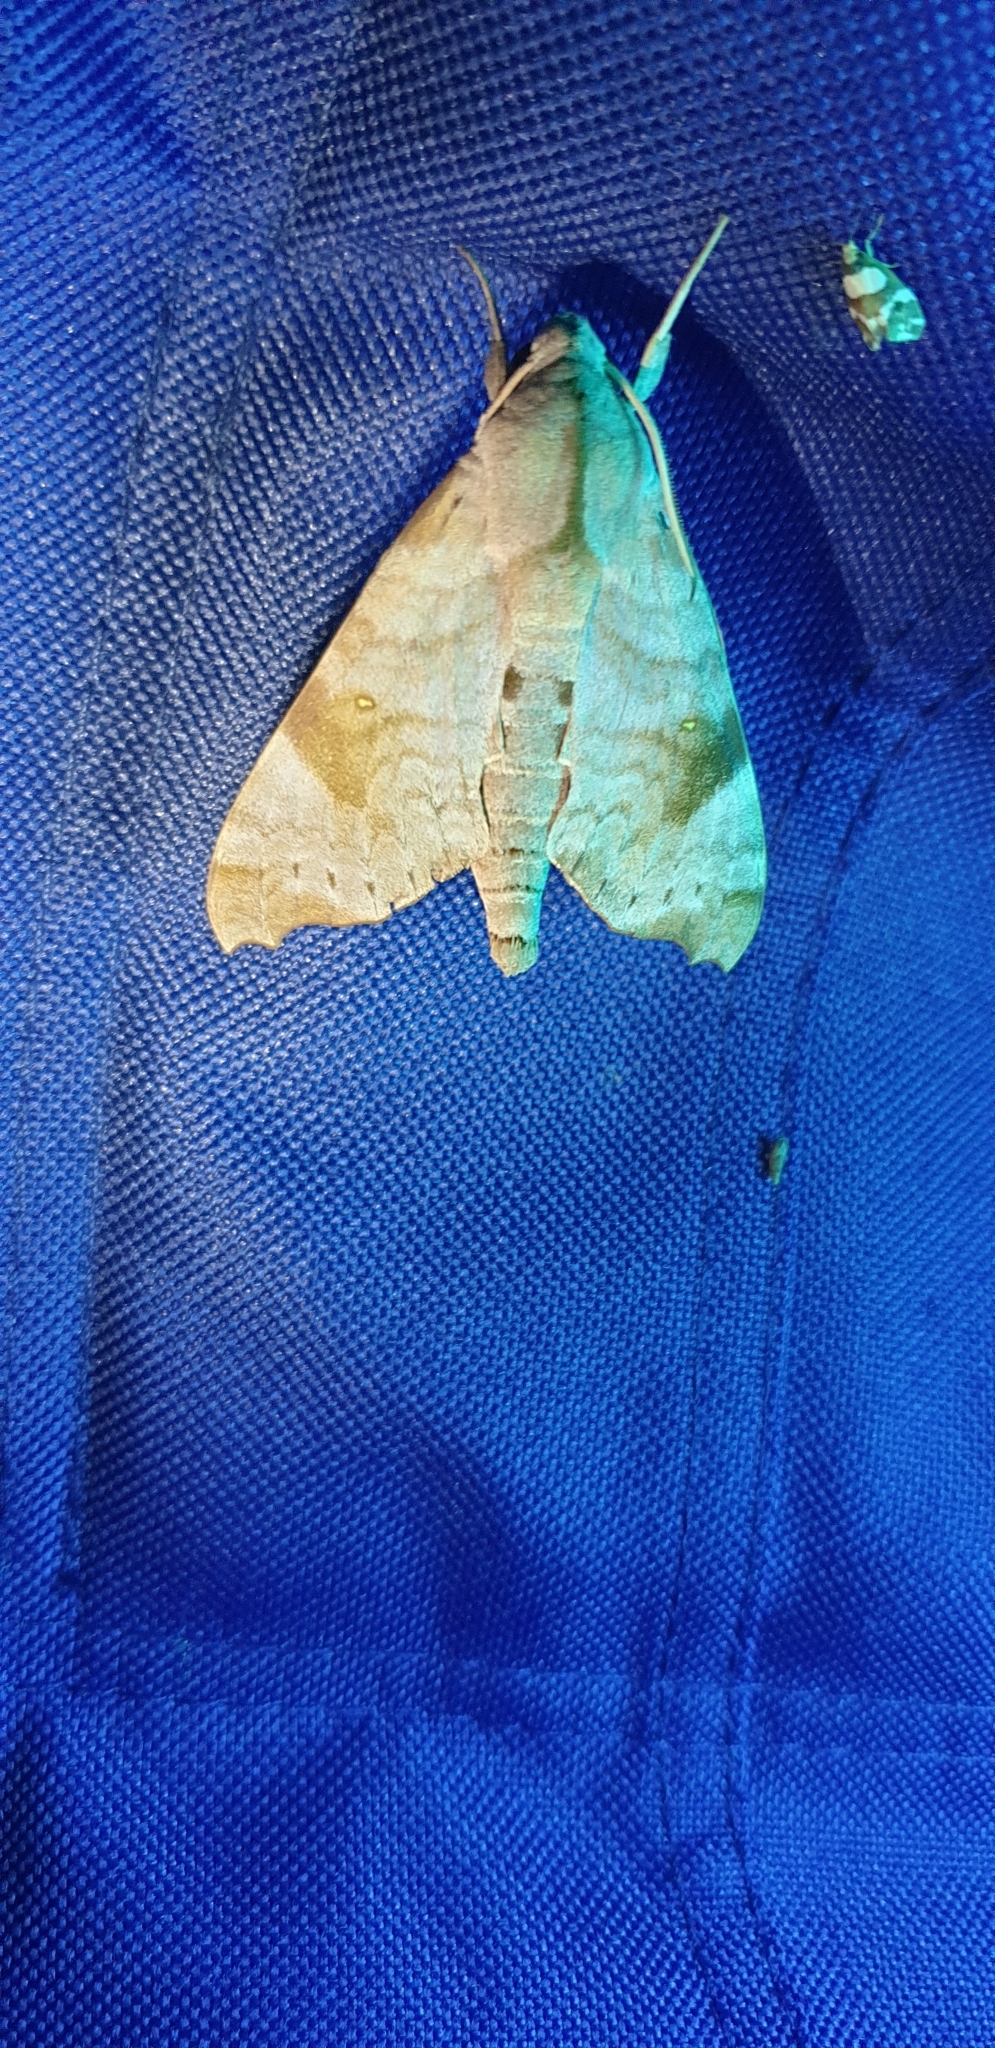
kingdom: Animalia
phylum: Arthropoda
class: Insecta
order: Lepidoptera
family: Sphingidae
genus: Acosmeryx
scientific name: Acosmeryx miskini
